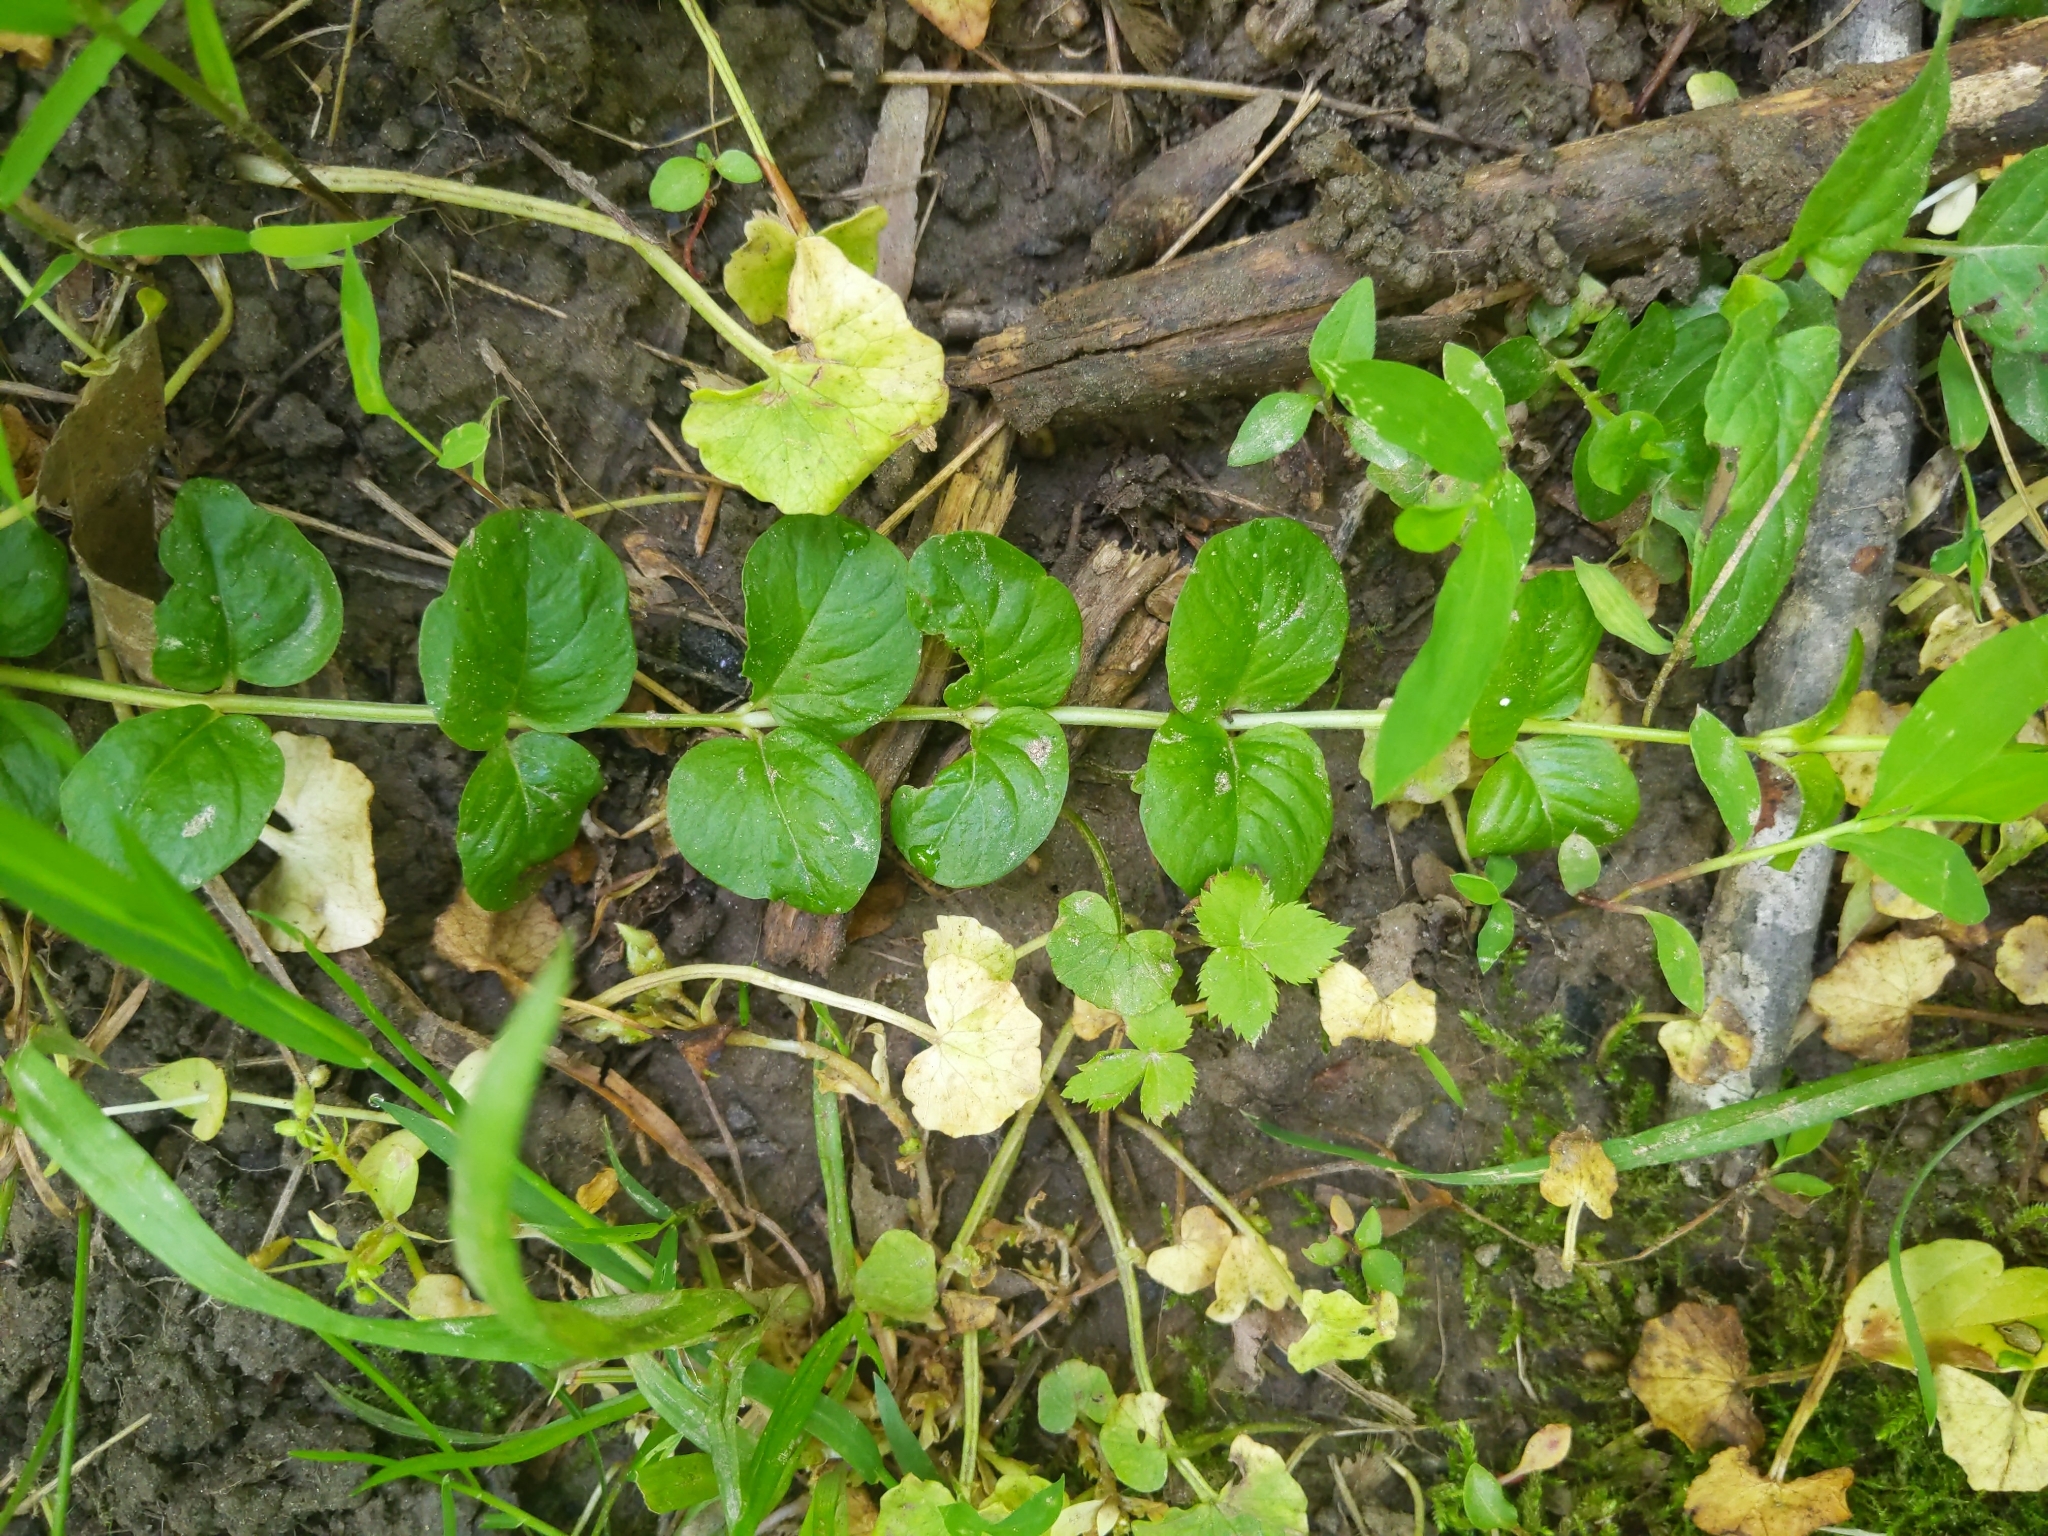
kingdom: Plantae
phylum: Tracheophyta
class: Magnoliopsida
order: Ericales
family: Primulaceae
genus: Lysimachia
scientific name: Lysimachia nummularia
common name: Moneywort
